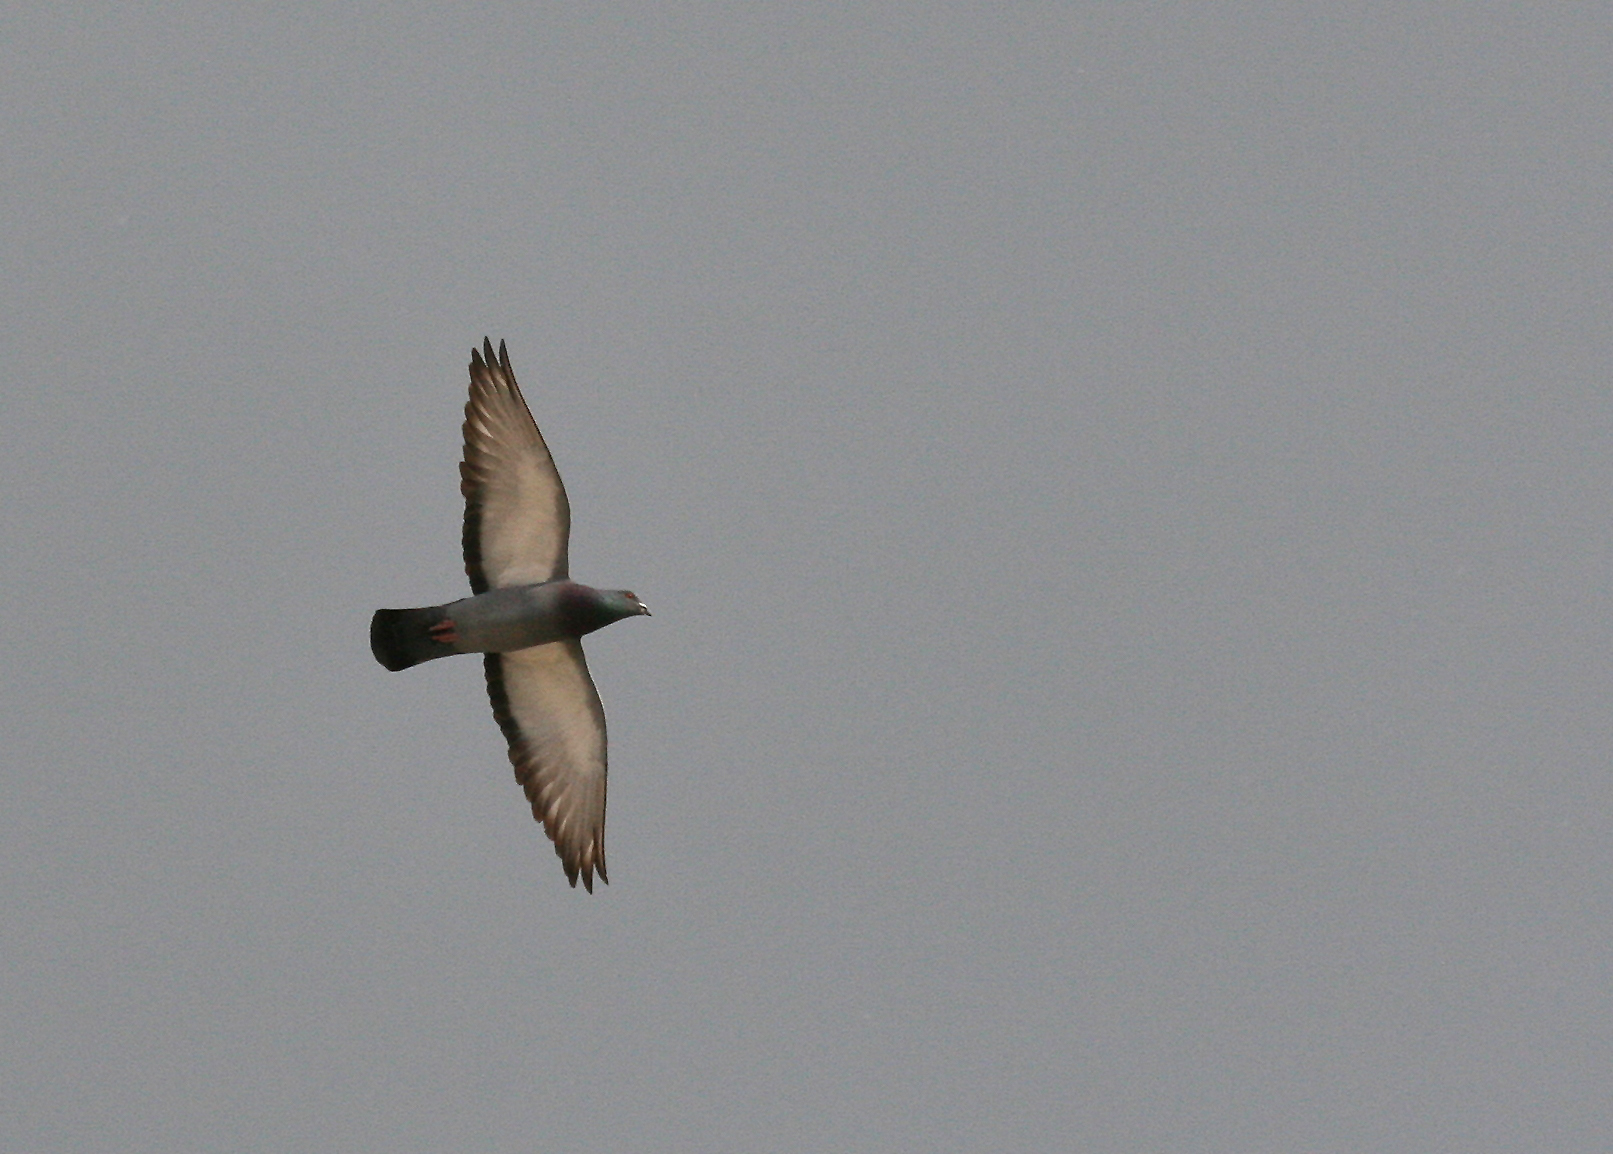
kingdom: Animalia
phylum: Chordata
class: Aves
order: Columbiformes
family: Columbidae
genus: Columba
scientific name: Columba livia
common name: Rock pigeon
